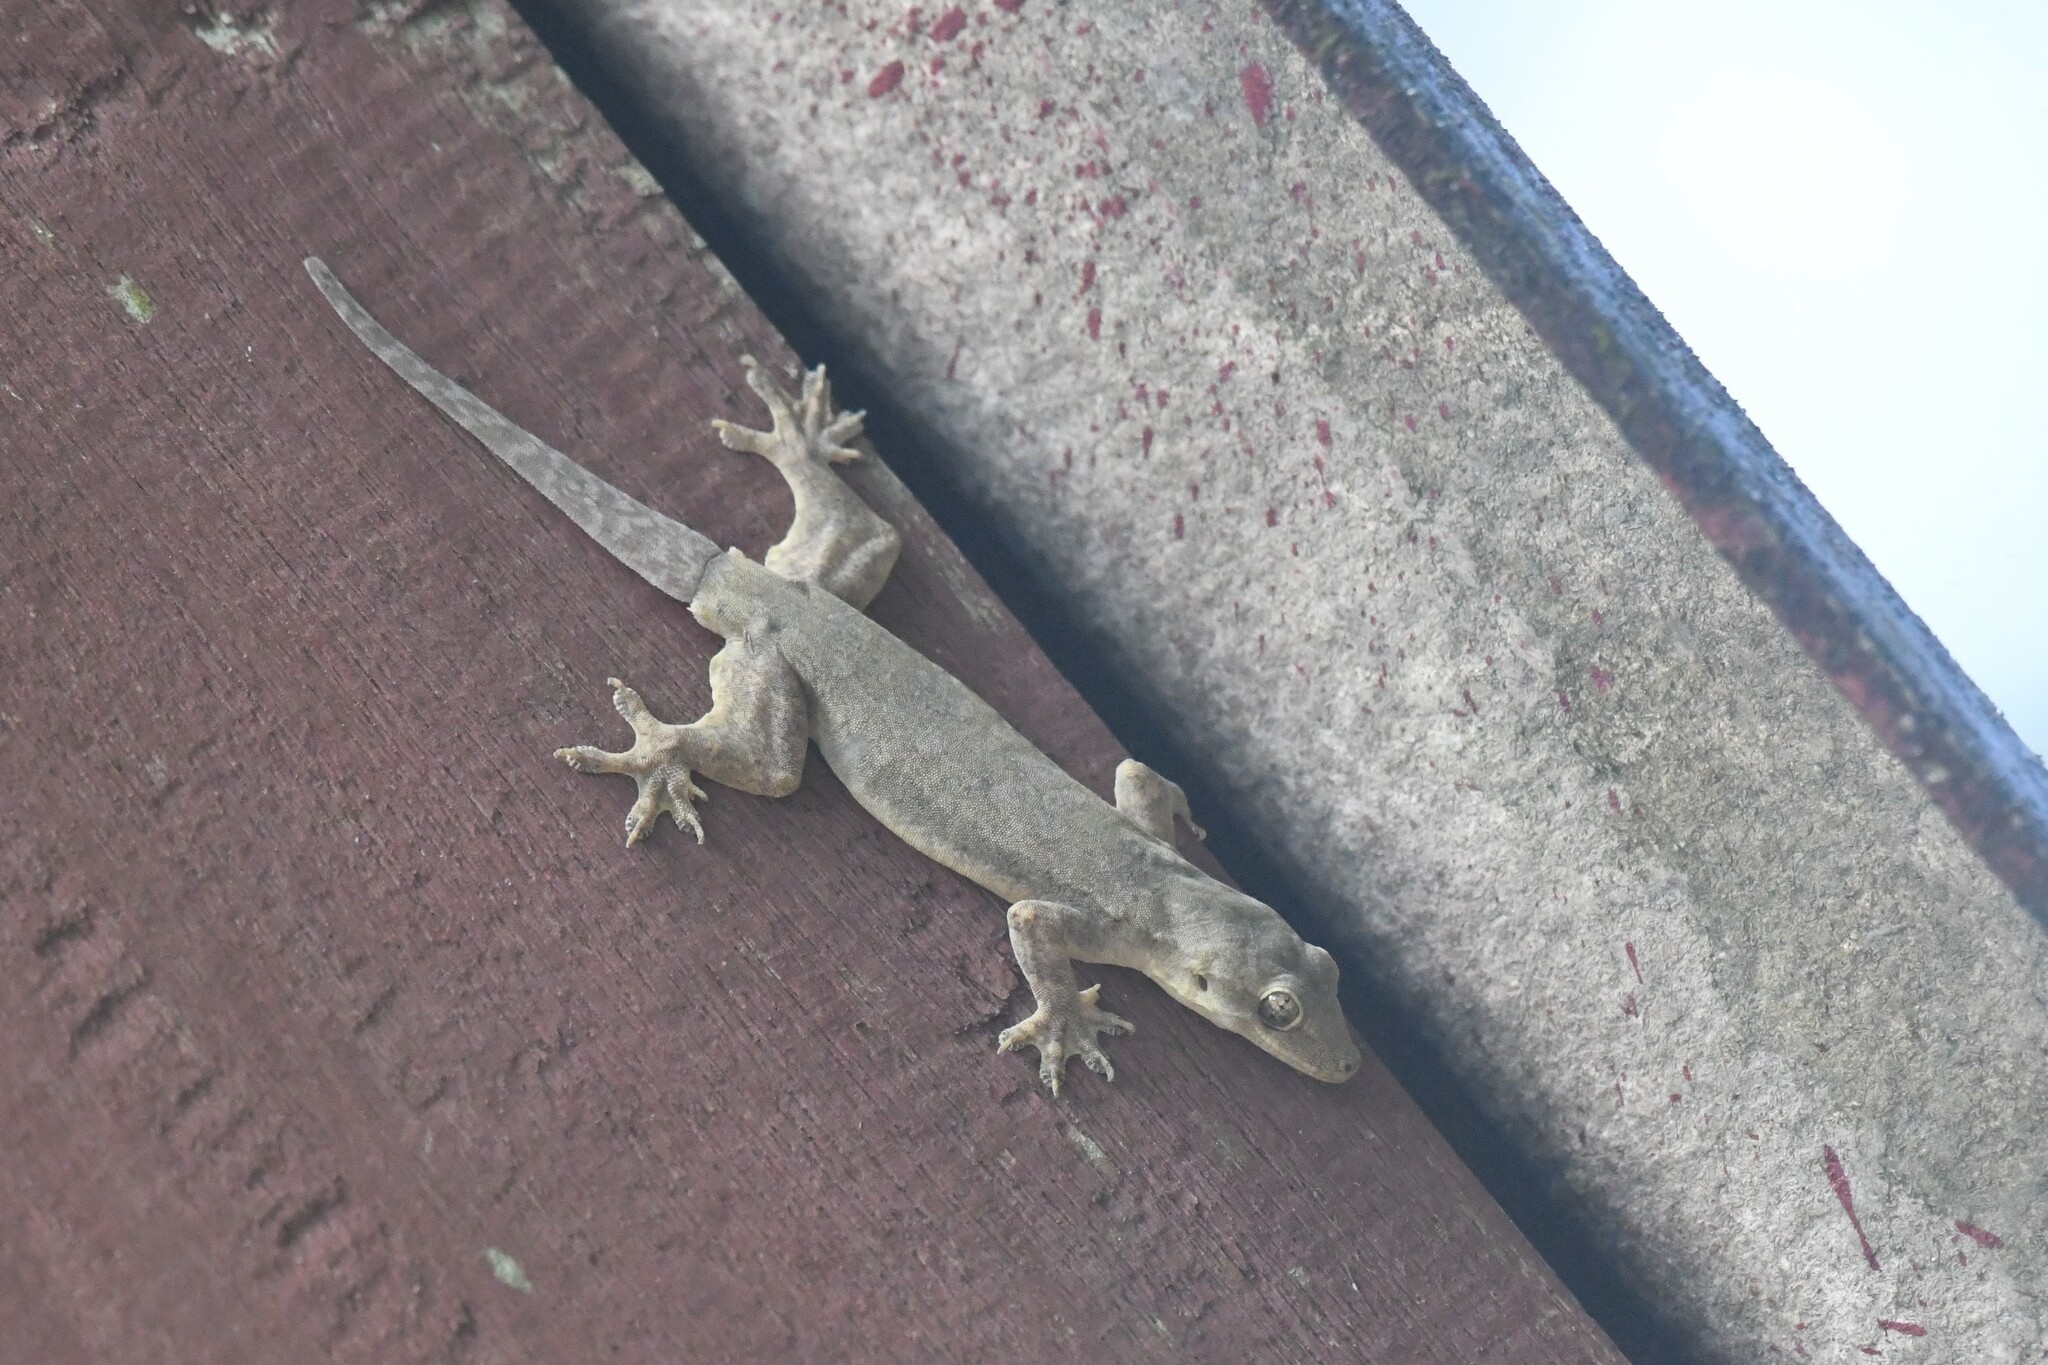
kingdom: Animalia
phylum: Chordata
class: Squamata
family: Gekkonidae
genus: Hemidactylus
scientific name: Hemidactylus platyurus
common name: Flat-tailed house gecko
